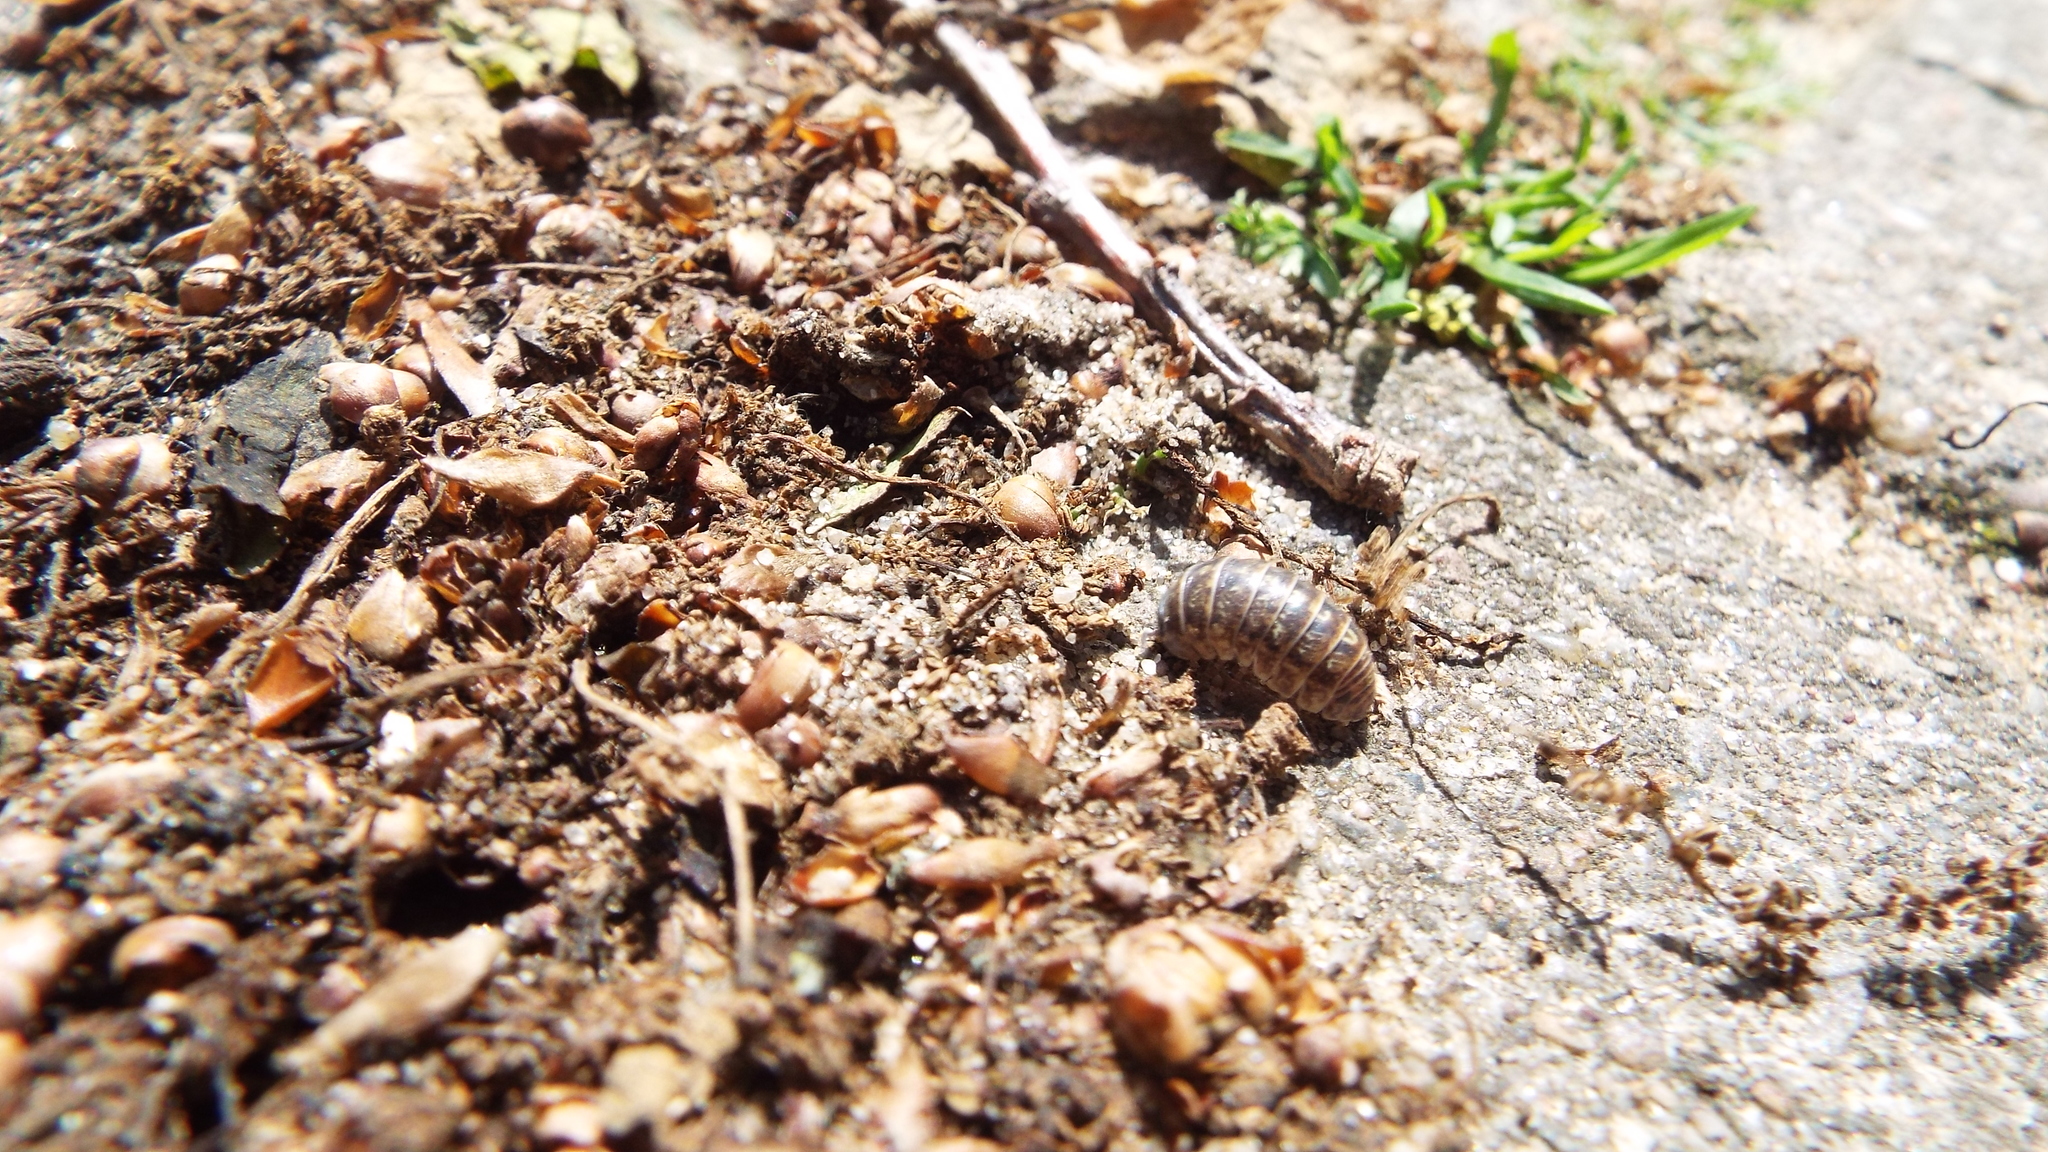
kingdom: Animalia
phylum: Arthropoda
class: Malacostraca
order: Isopoda
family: Armadillidiidae
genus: Armadillidium
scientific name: Armadillidium vulgare
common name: Common pill woodlouse
